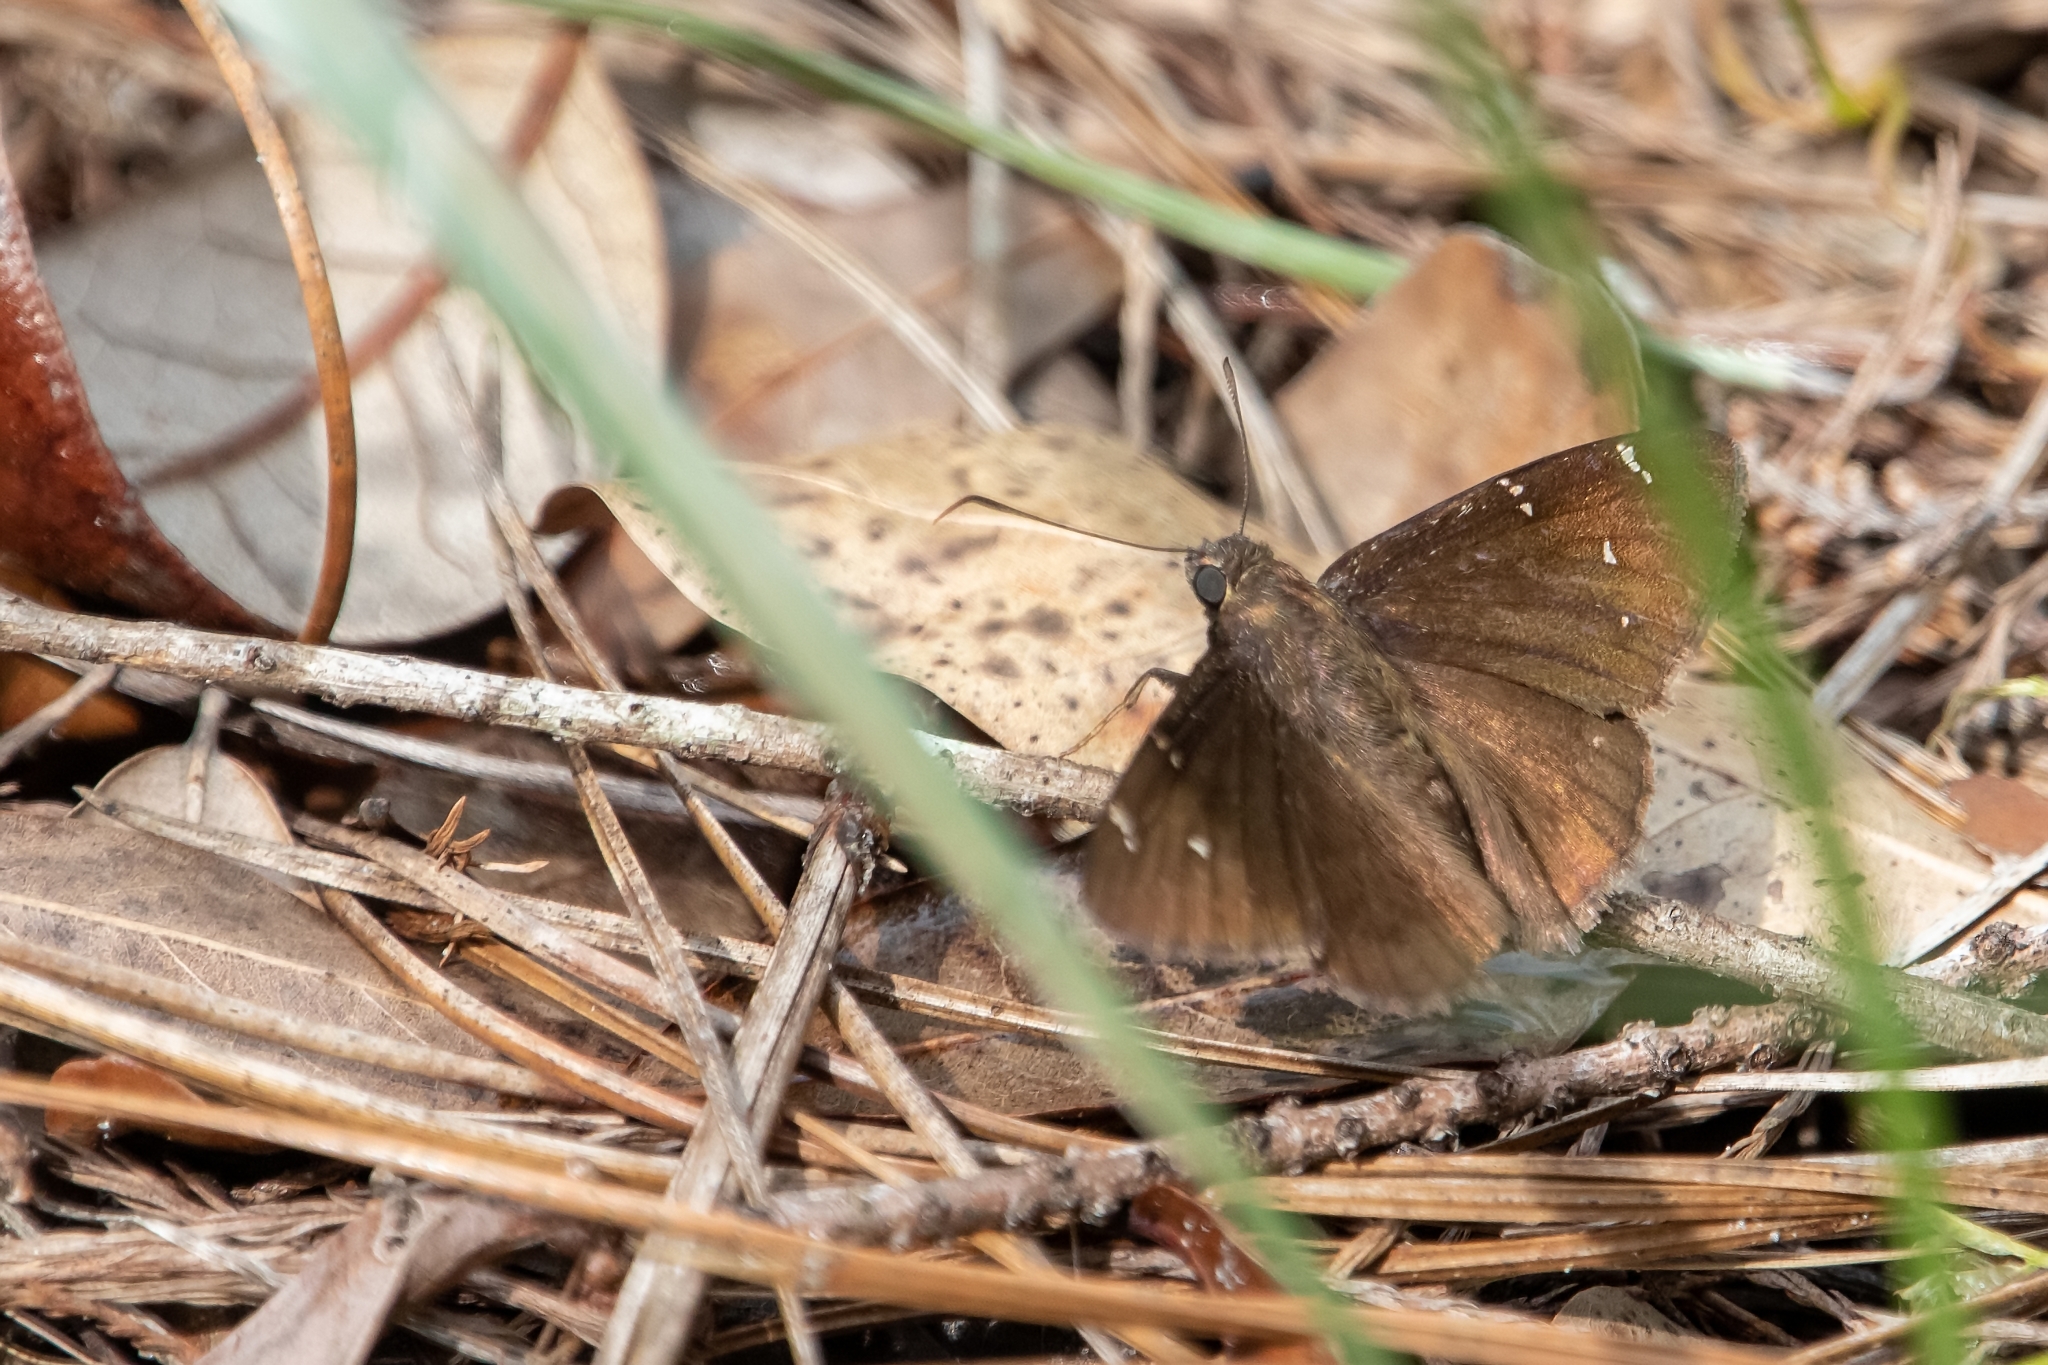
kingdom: Animalia
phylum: Arthropoda
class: Insecta
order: Lepidoptera
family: Hesperiidae
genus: Thorybes
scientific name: Thorybes pylades
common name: Northern cloudywing
